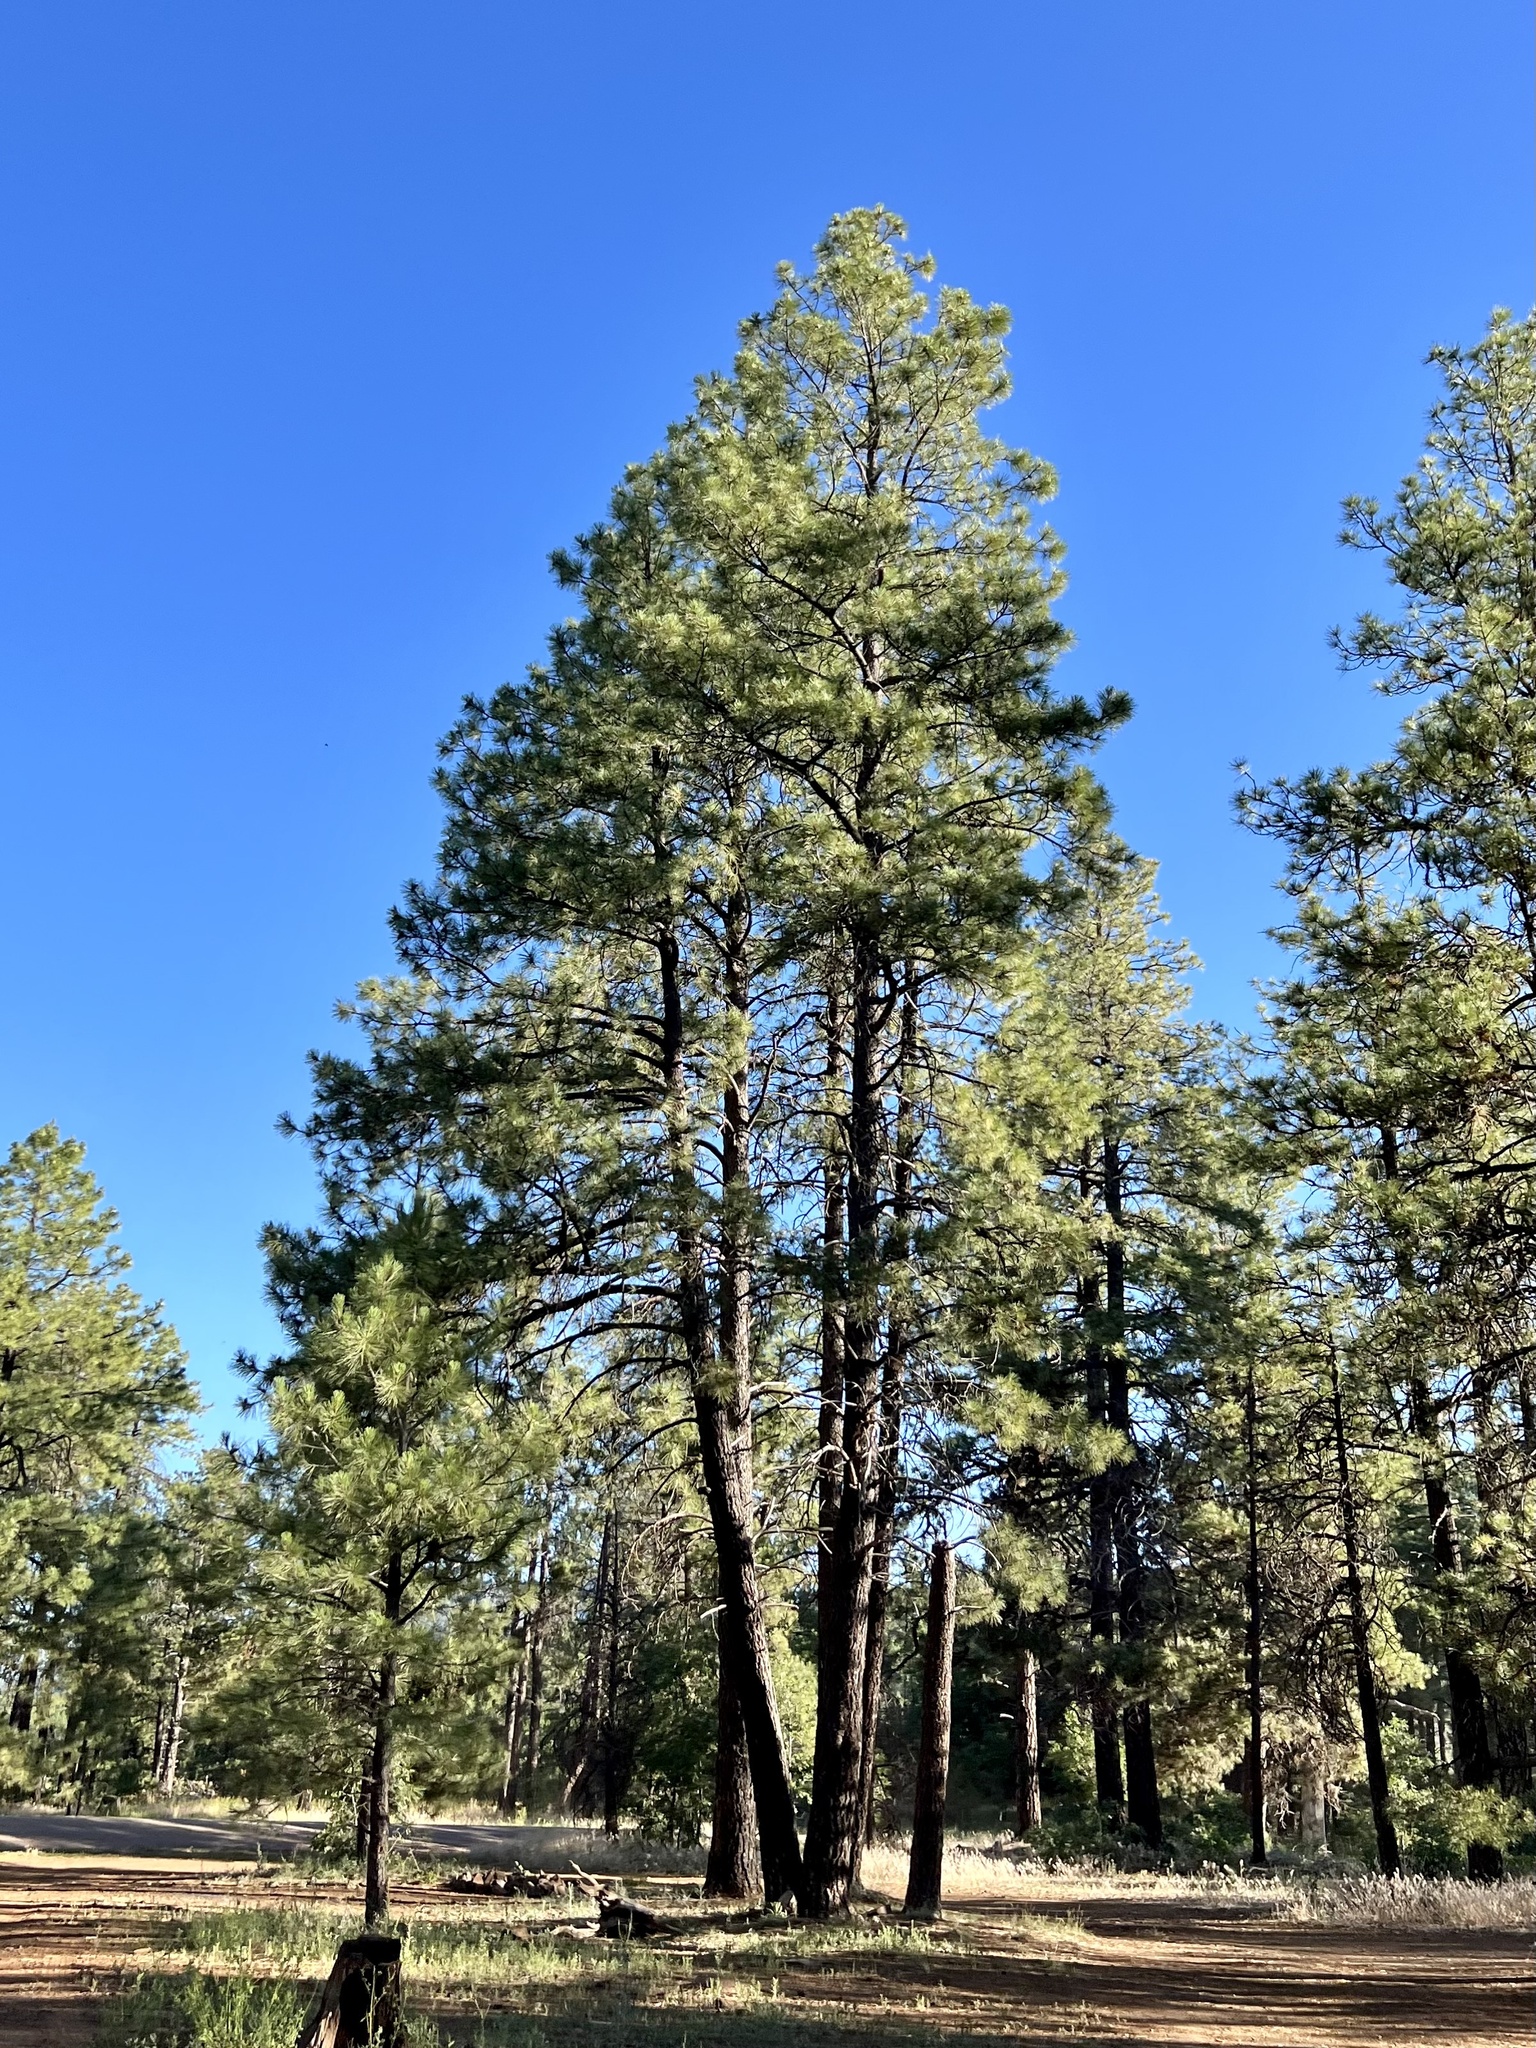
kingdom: Plantae
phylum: Tracheophyta
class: Pinopsida
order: Pinales
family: Pinaceae
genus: Pinus
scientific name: Pinus ponderosa
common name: Western yellow-pine
